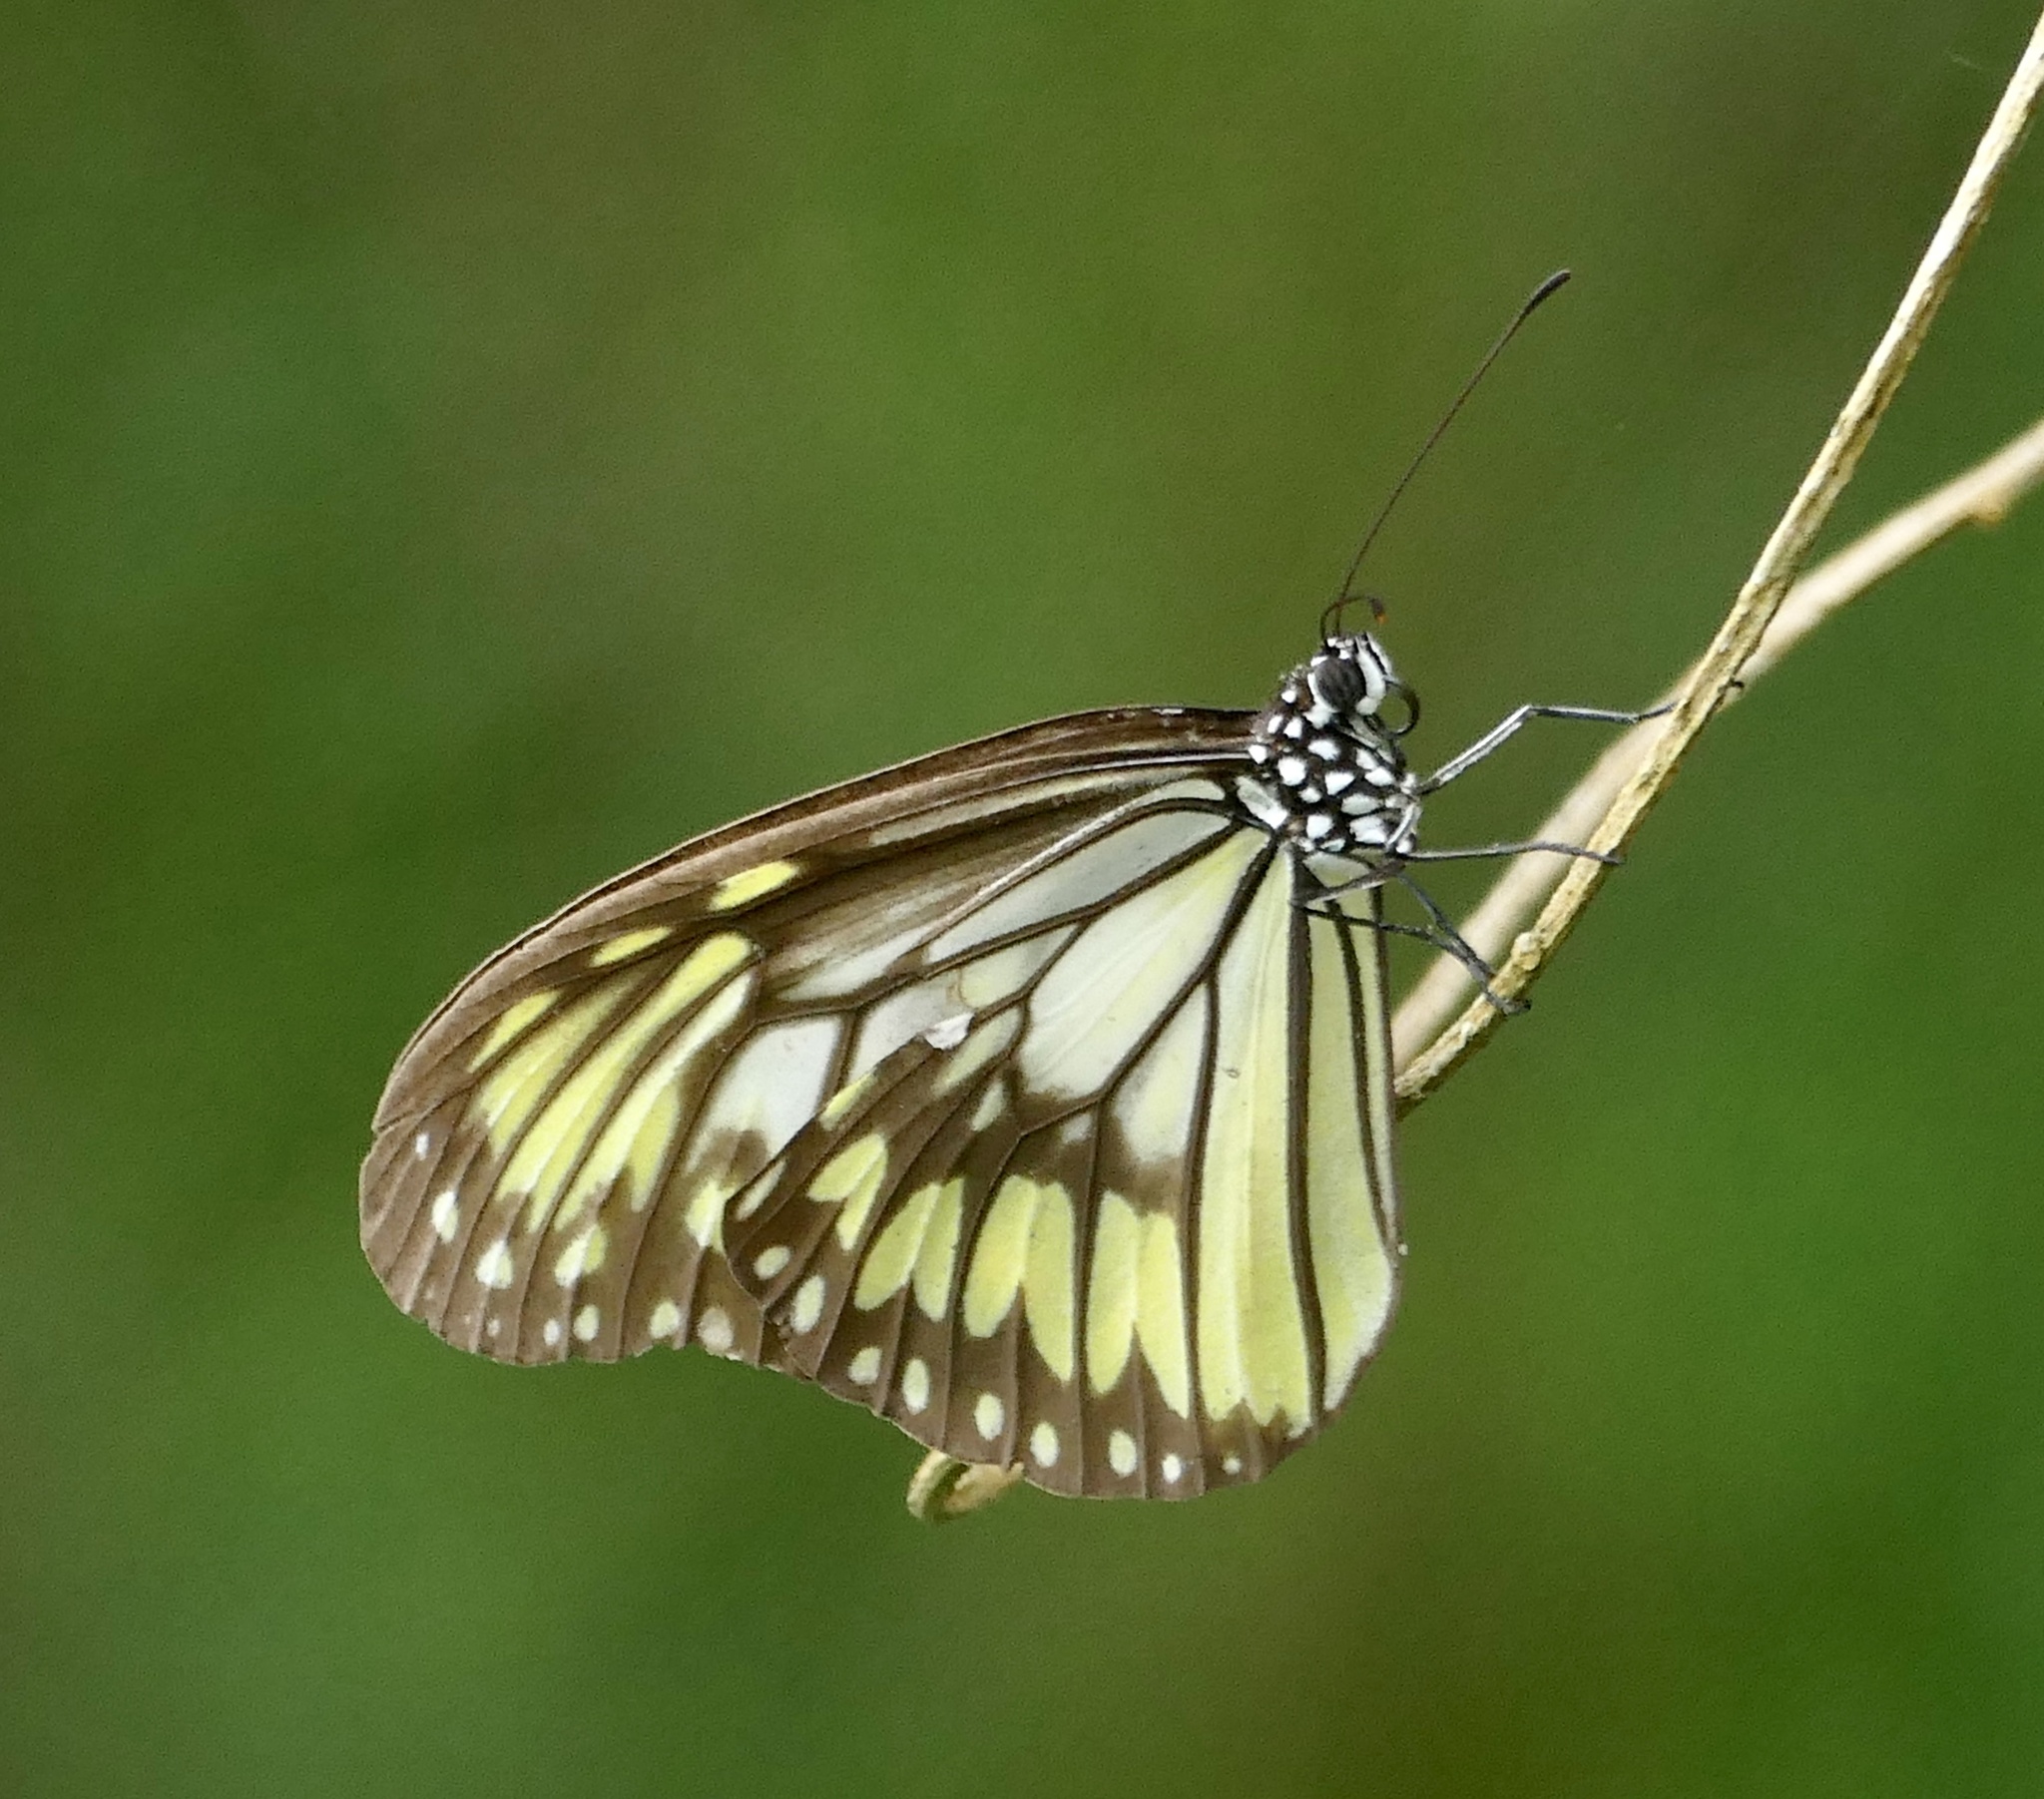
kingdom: Animalia
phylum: Arthropoda
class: Insecta
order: Lepidoptera
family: Nymphalidae
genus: Ideopsis
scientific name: Ideopsis vitrea
